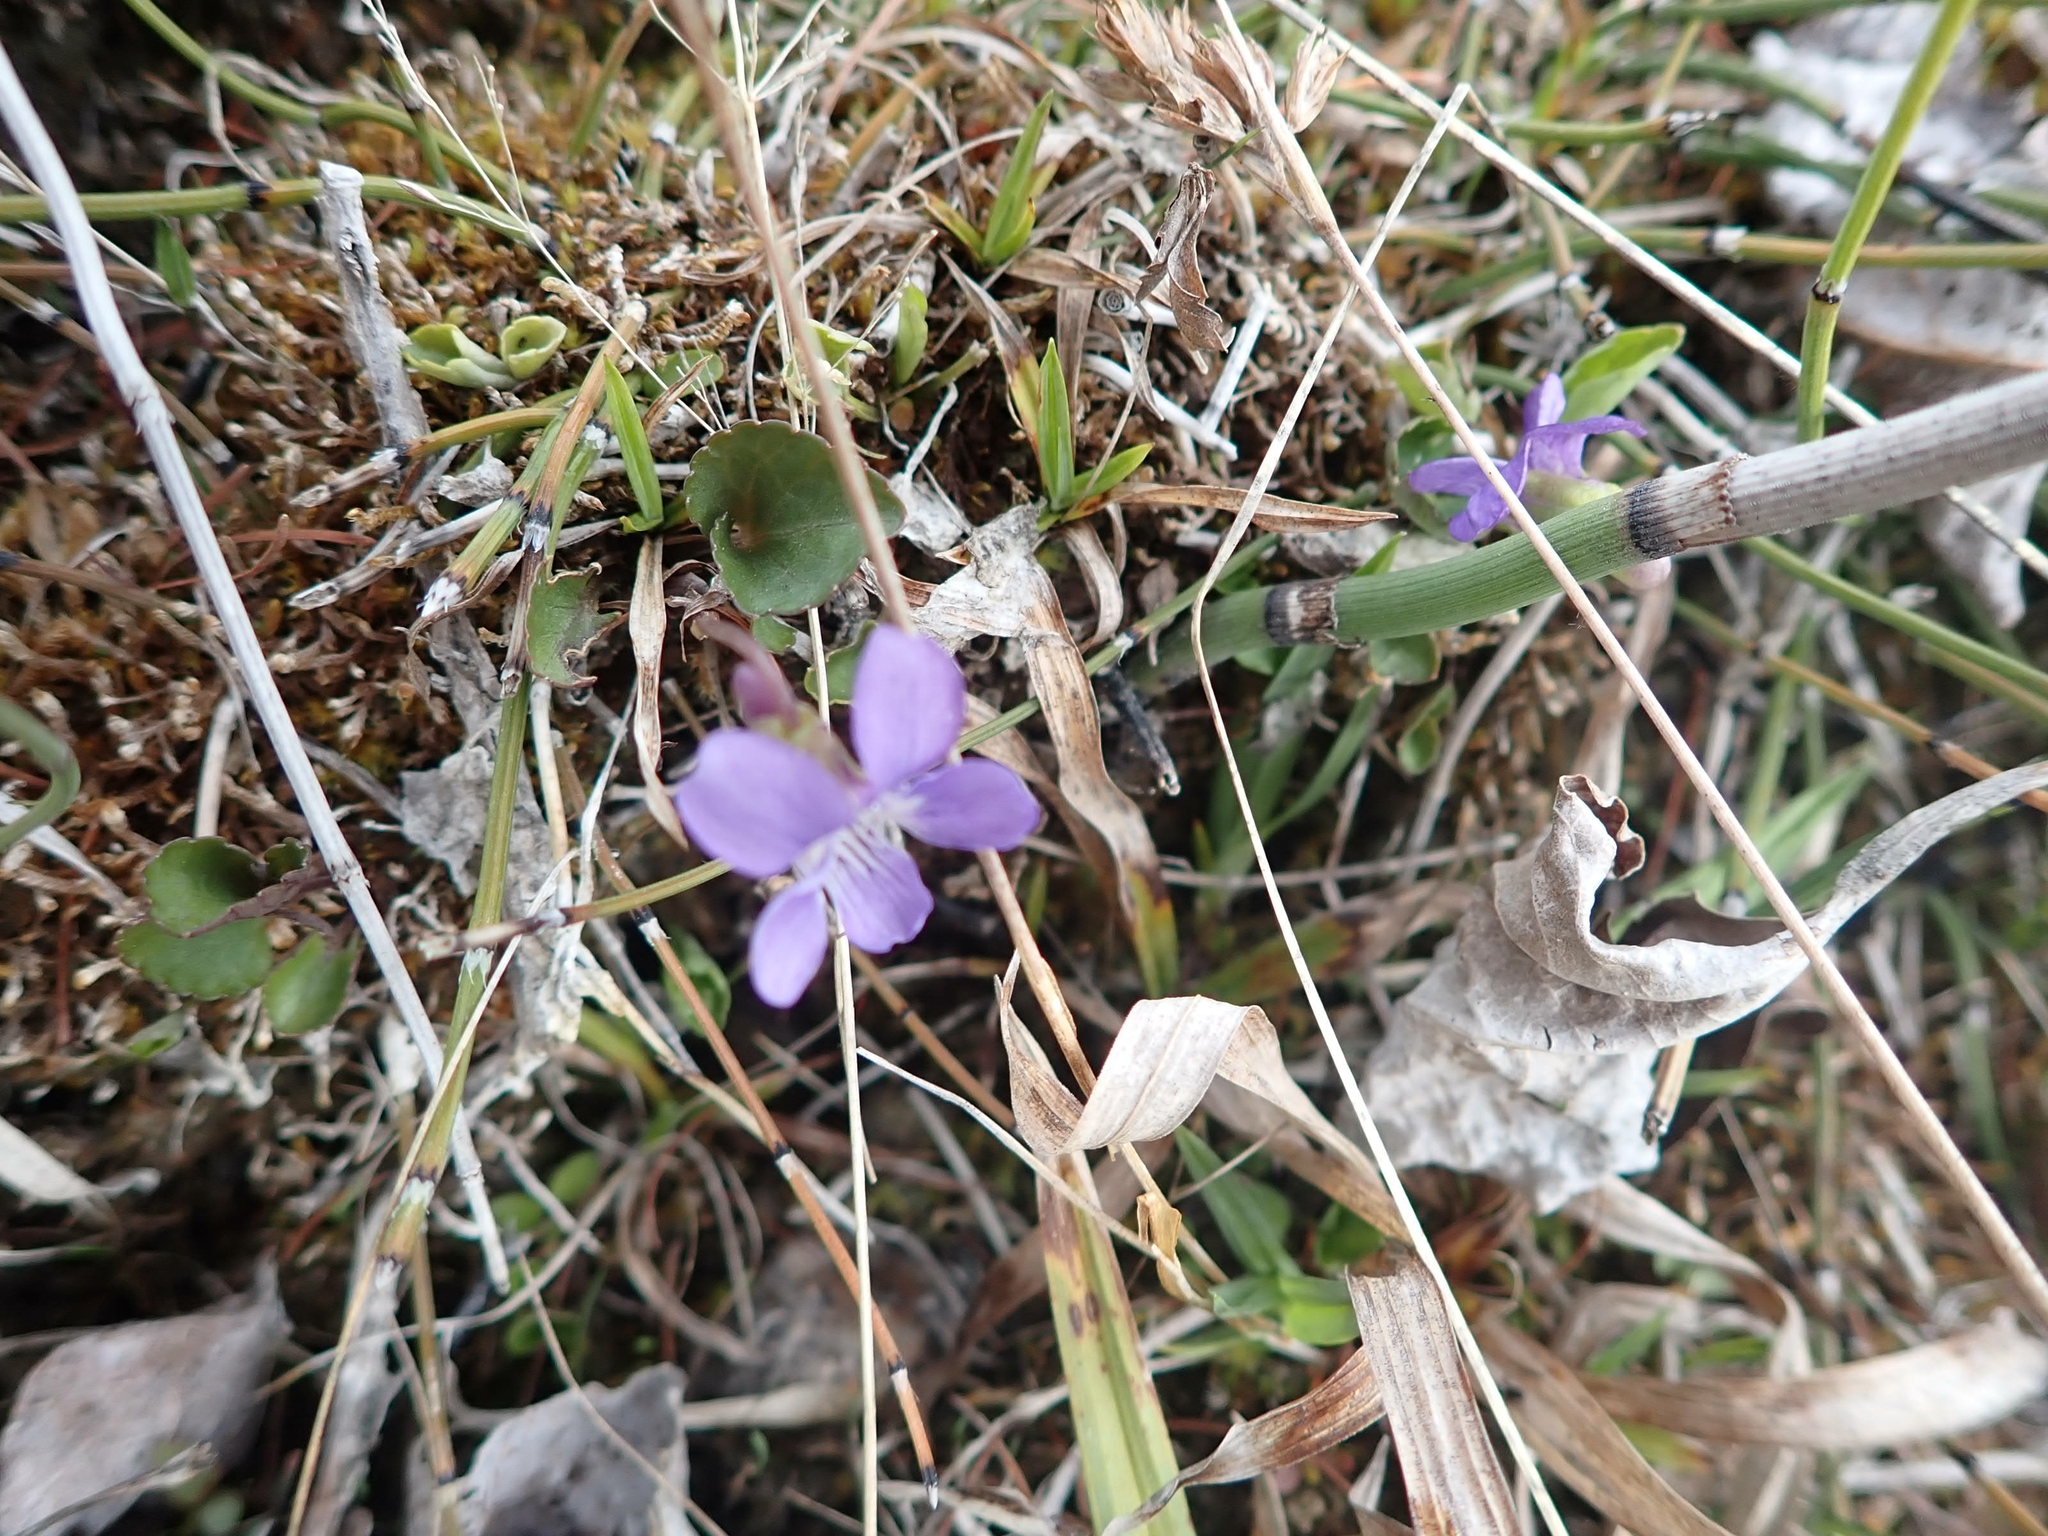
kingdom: Plantae
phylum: Tracheophyta
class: Magnoliopsida
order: Malpighiales
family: Violaceae
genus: Viola
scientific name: Viola adunca
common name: Sand violet
